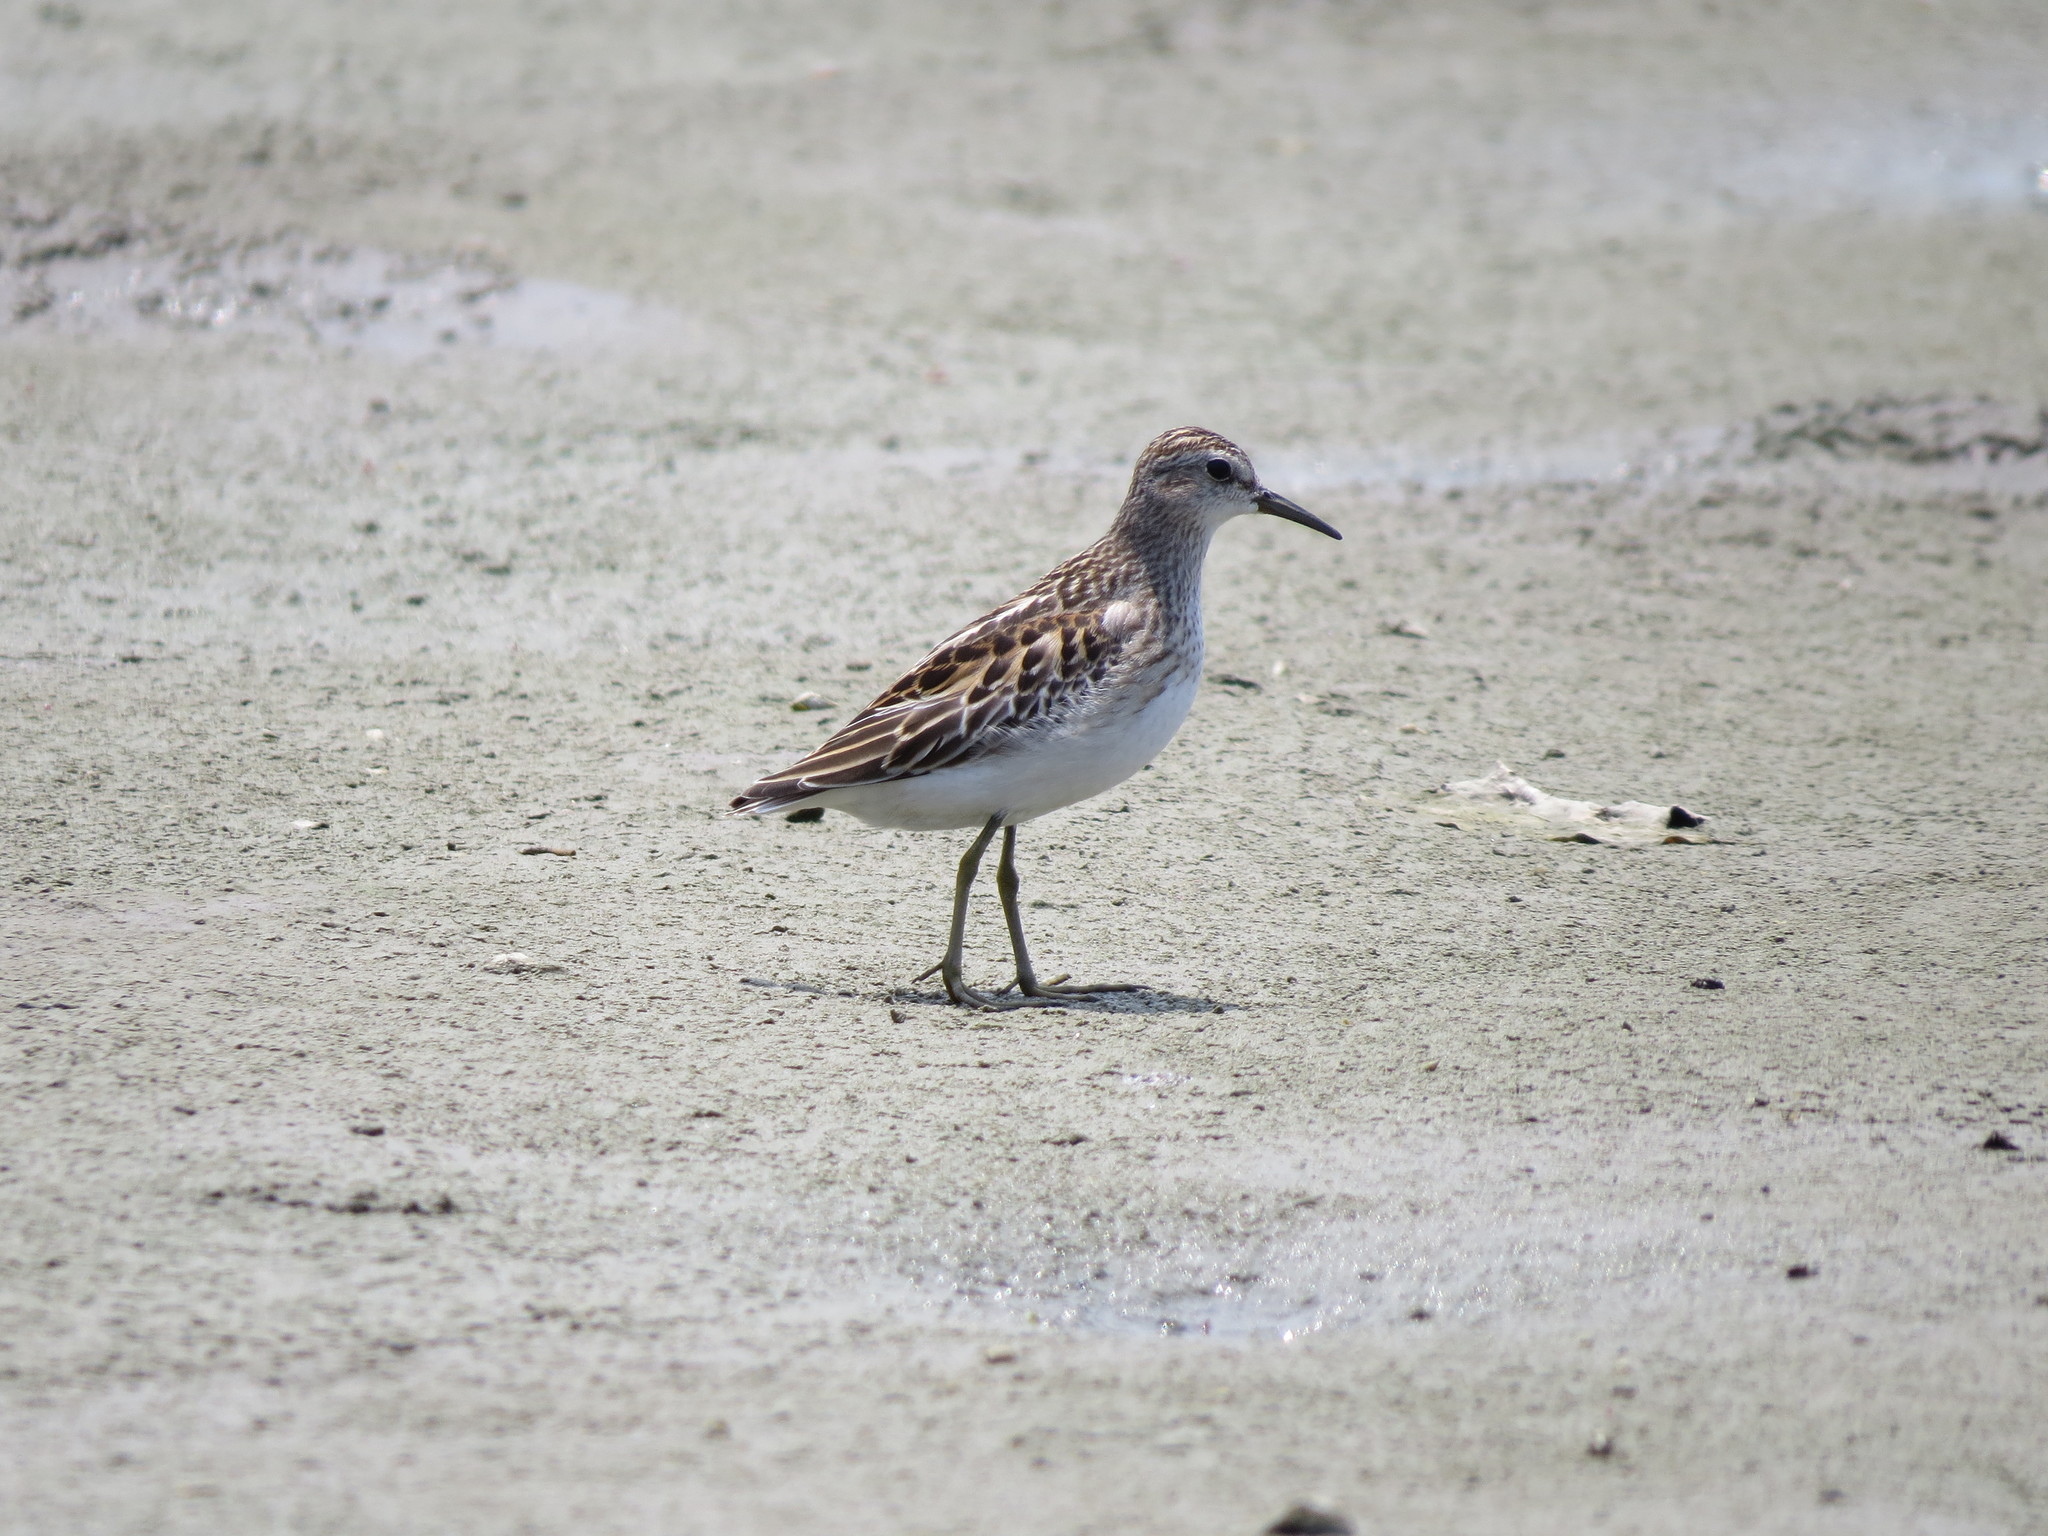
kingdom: Animalia
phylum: Chordata
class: Aves
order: Charadriiformes
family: Scolopacidae
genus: Calidris
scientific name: Calidris subminuta
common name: Long-toed stint
